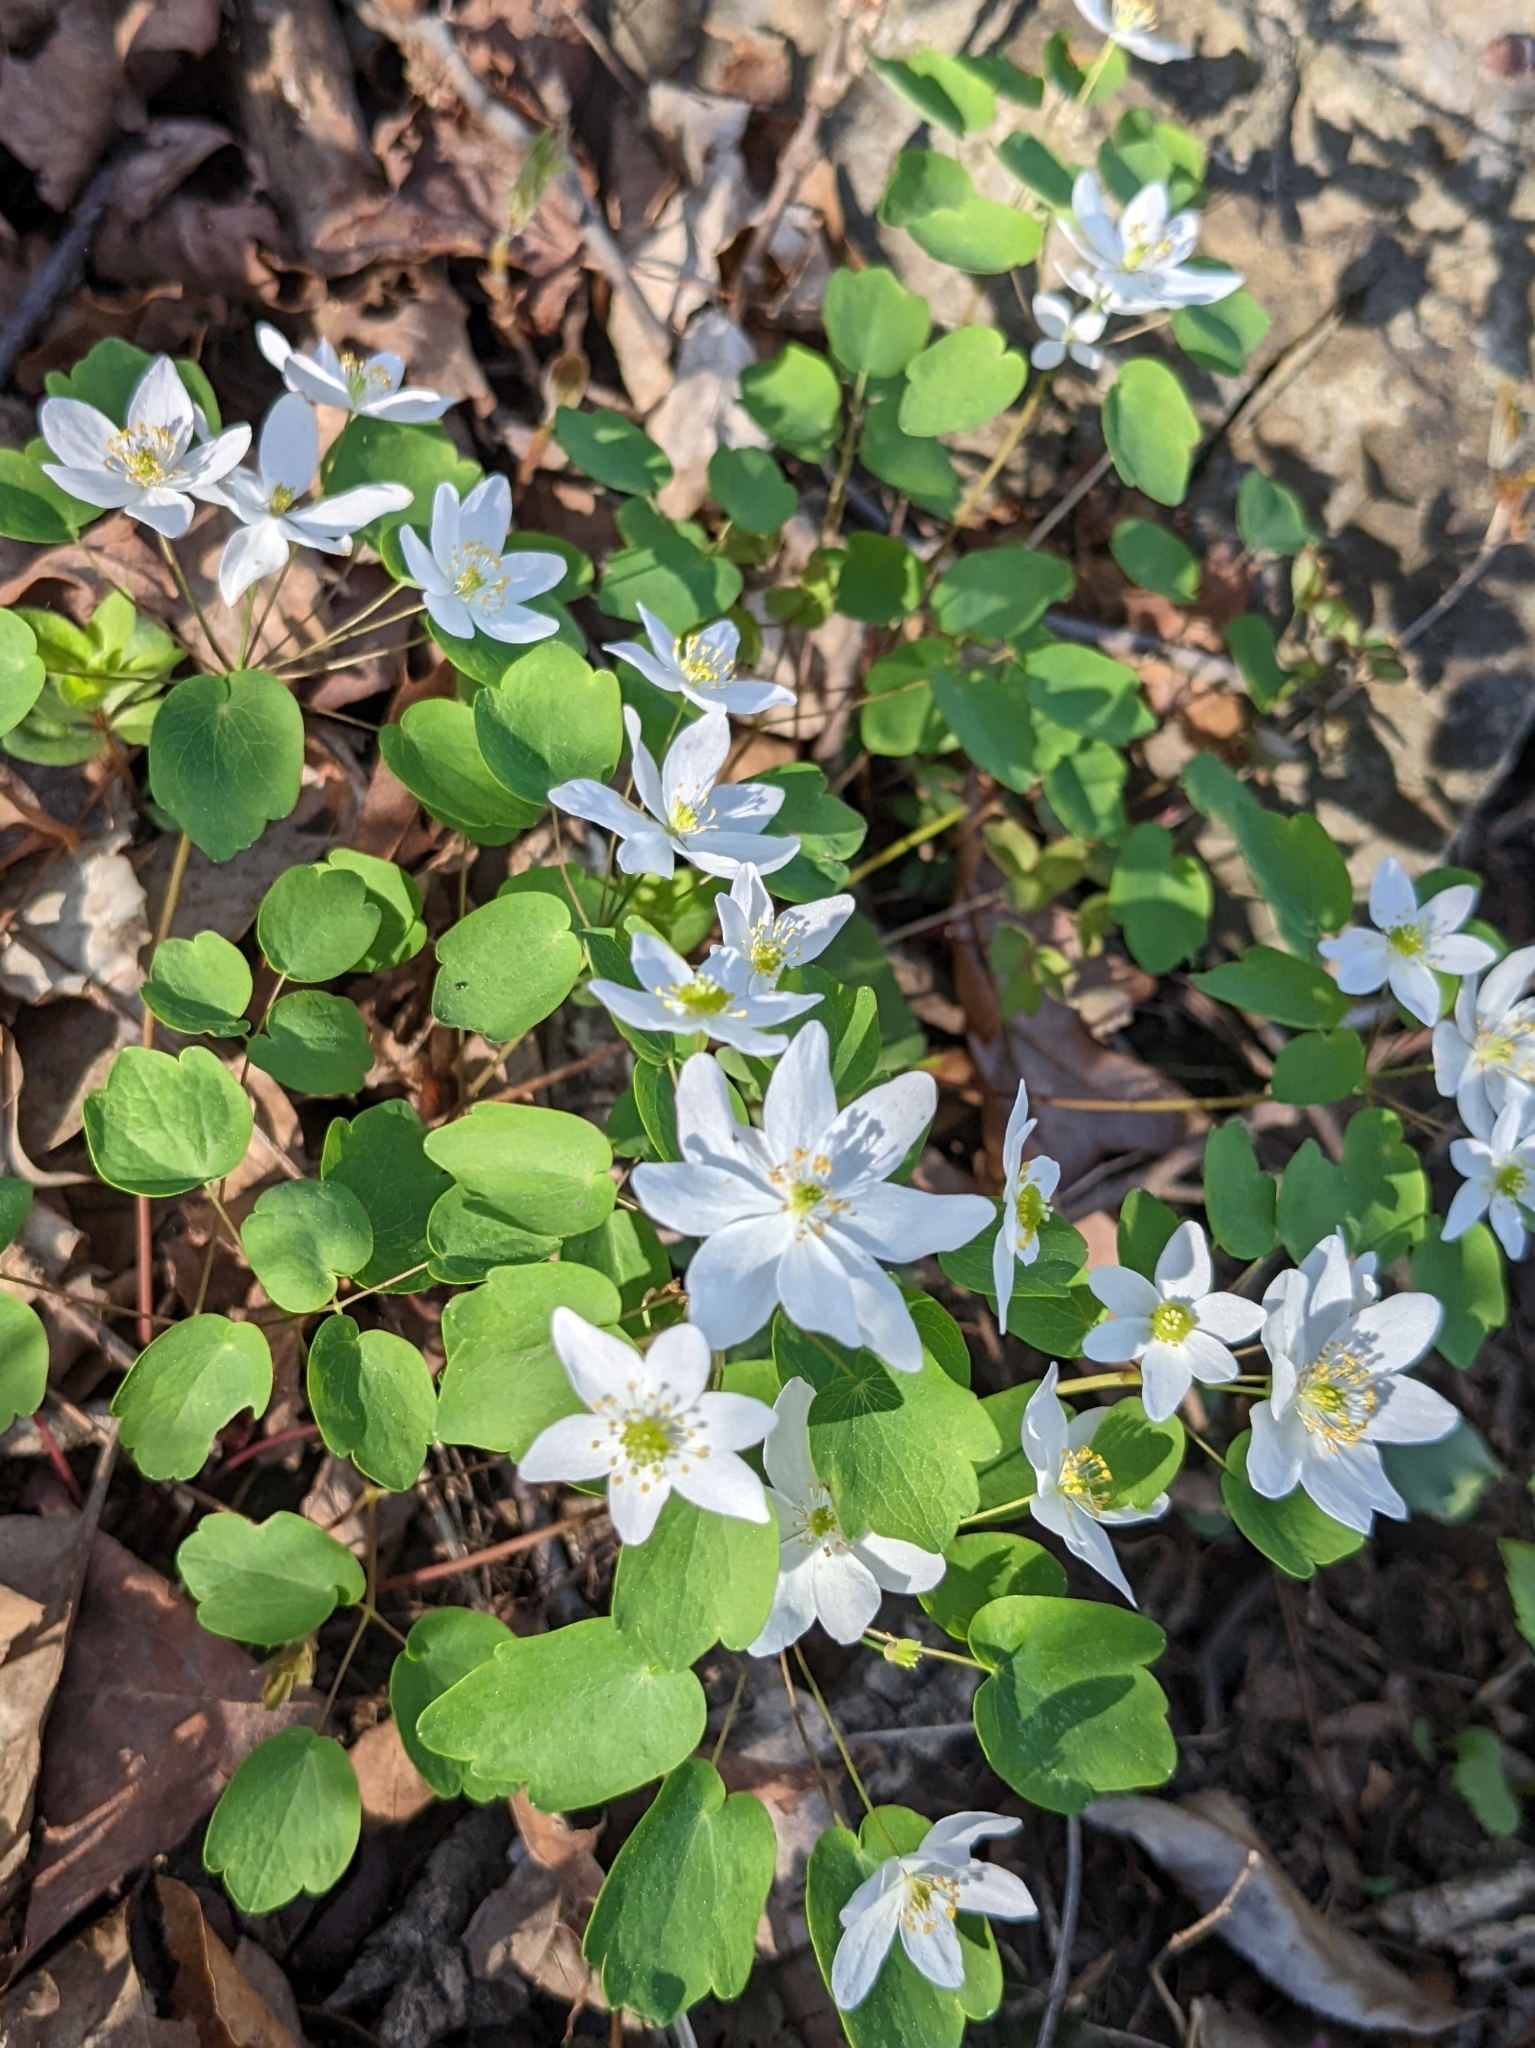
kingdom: Plantae
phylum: Tracheophyta
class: Magnoliopsida
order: Ranunculales
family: Ranunculaceae
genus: Thalictrum
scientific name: Thalictrum thalictroides
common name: Rue-anemone
